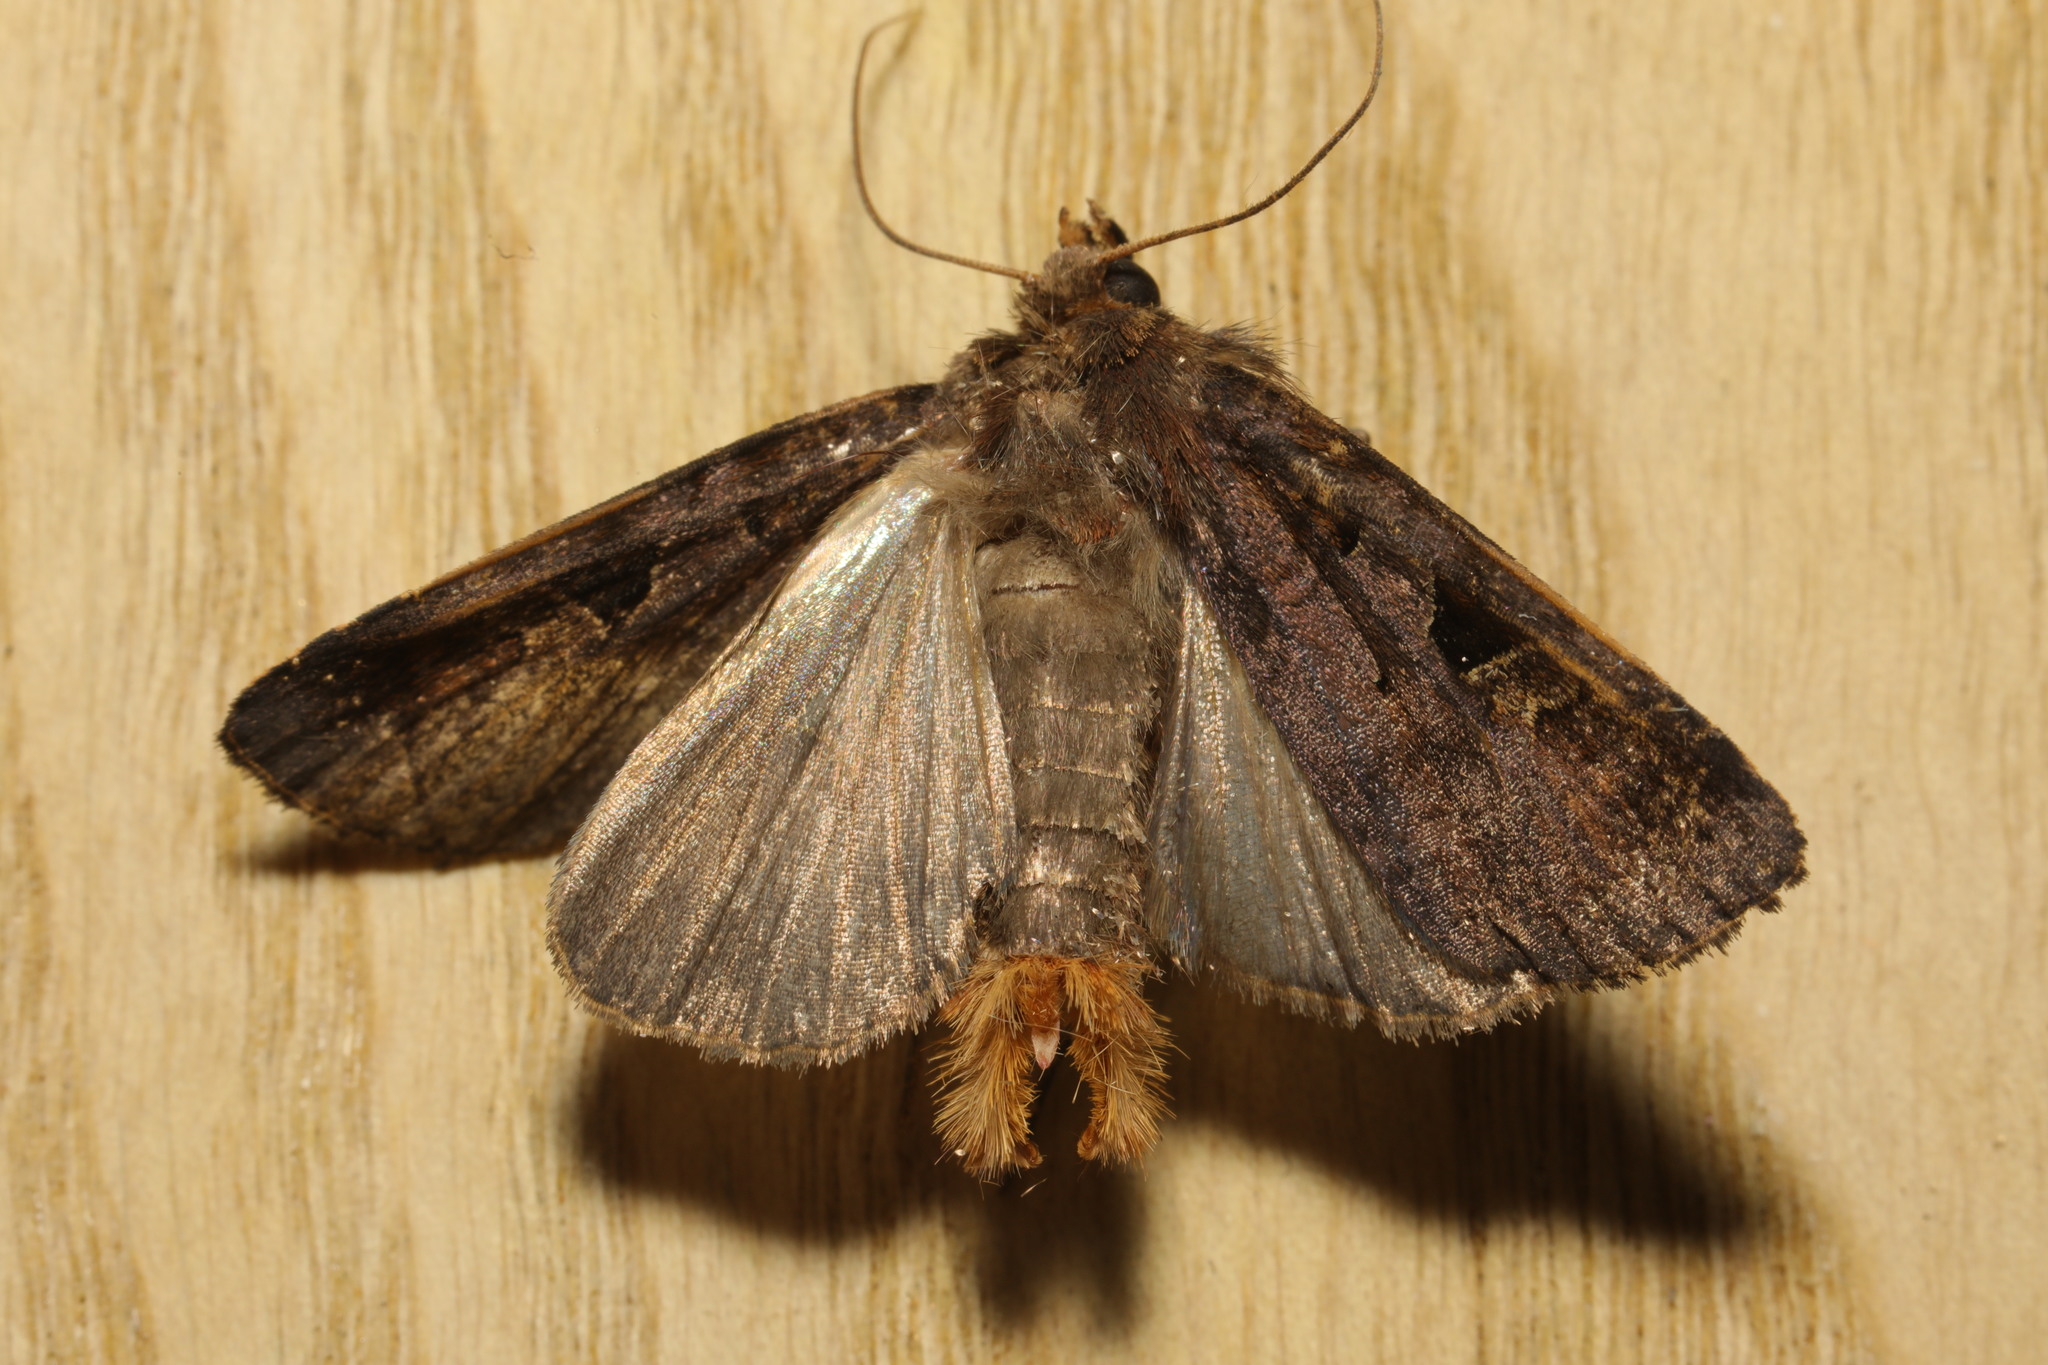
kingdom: Animalia
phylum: Arthropoda
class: Insecta
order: Lepidoptera
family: Noctuidae
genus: Diarsia
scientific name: Diarsia brunnea
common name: Purple clay
